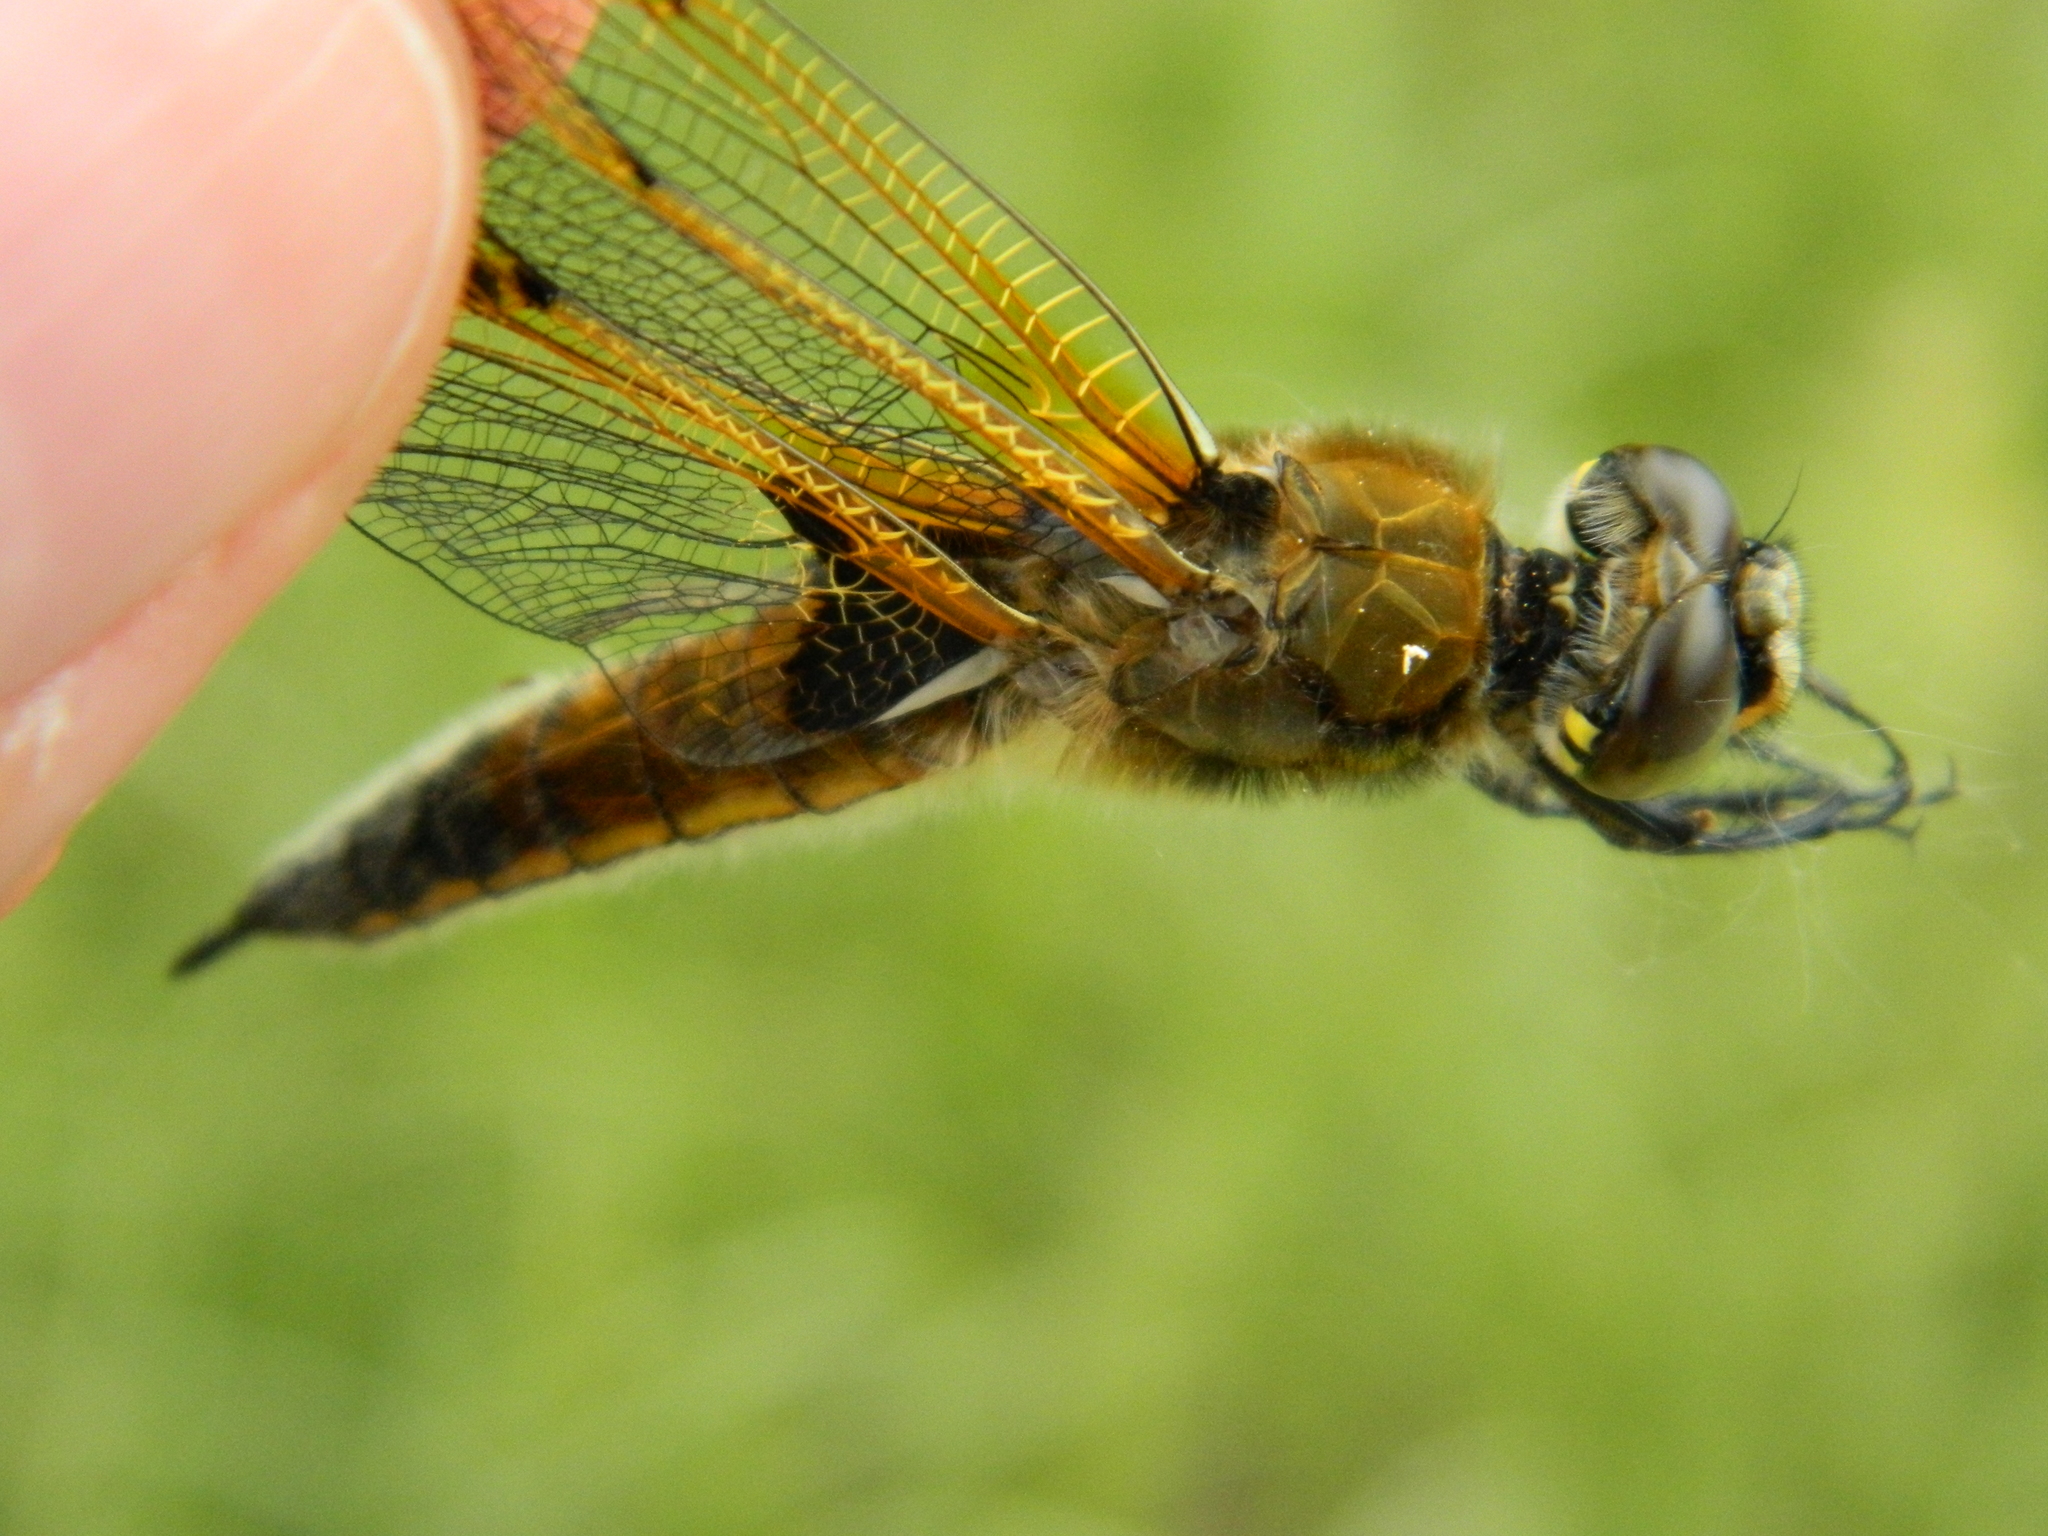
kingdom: Animalia
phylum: Arthropoda
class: Insecta
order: Odonata
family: Libellulidae
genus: Libellula
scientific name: Libellula quadrimaculata
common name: Four-spotted chaser
